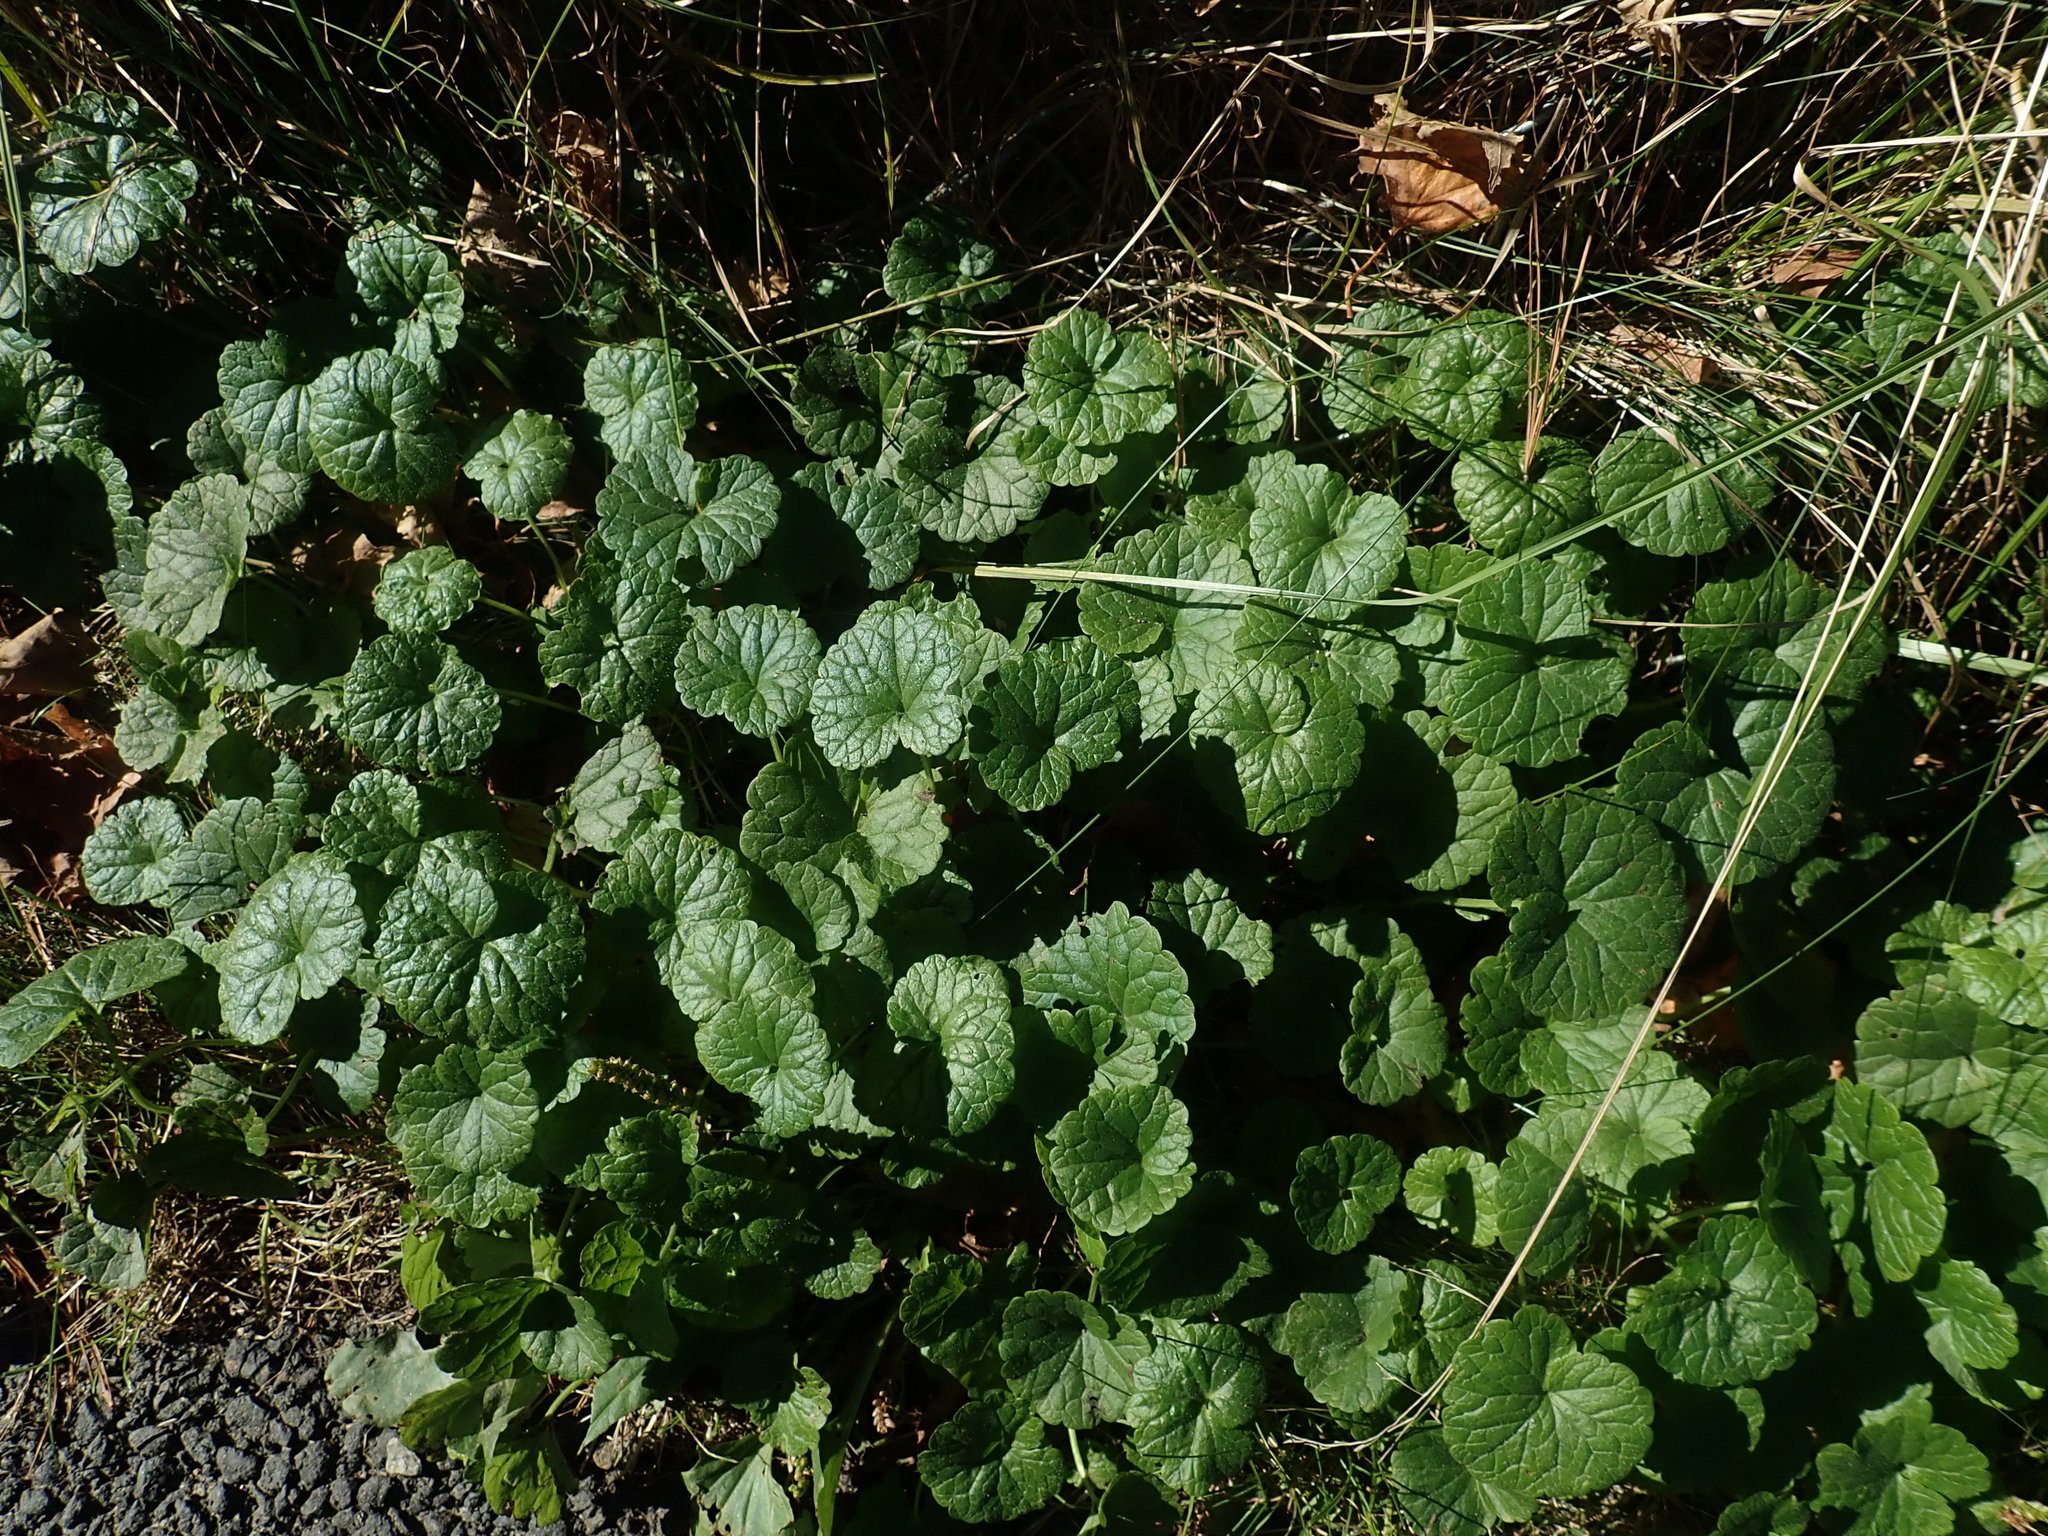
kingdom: Plantae
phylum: Tracheophyta
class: Magnoliopsida
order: Lamiales
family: Lamiaceae
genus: Glechoma
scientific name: Glechoma hederacea
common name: Ground ivy
